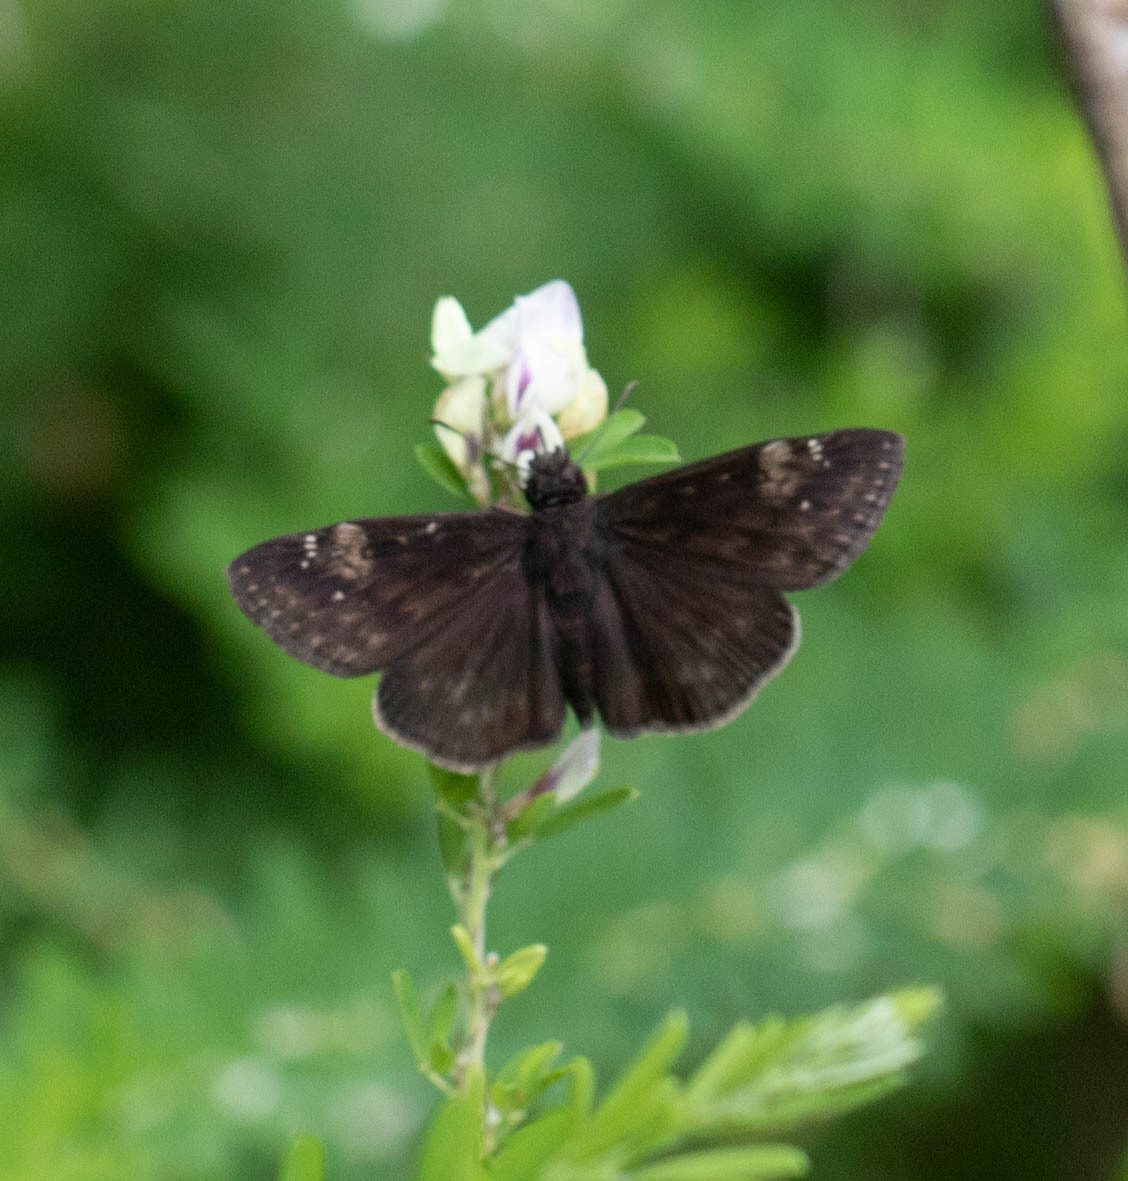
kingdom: Animalia
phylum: Arthropoda
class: Insecta
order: Lepidoptera
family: Hesperiidae
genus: Erynnis
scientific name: Erynnis zarucco
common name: Zarucco duskywing
